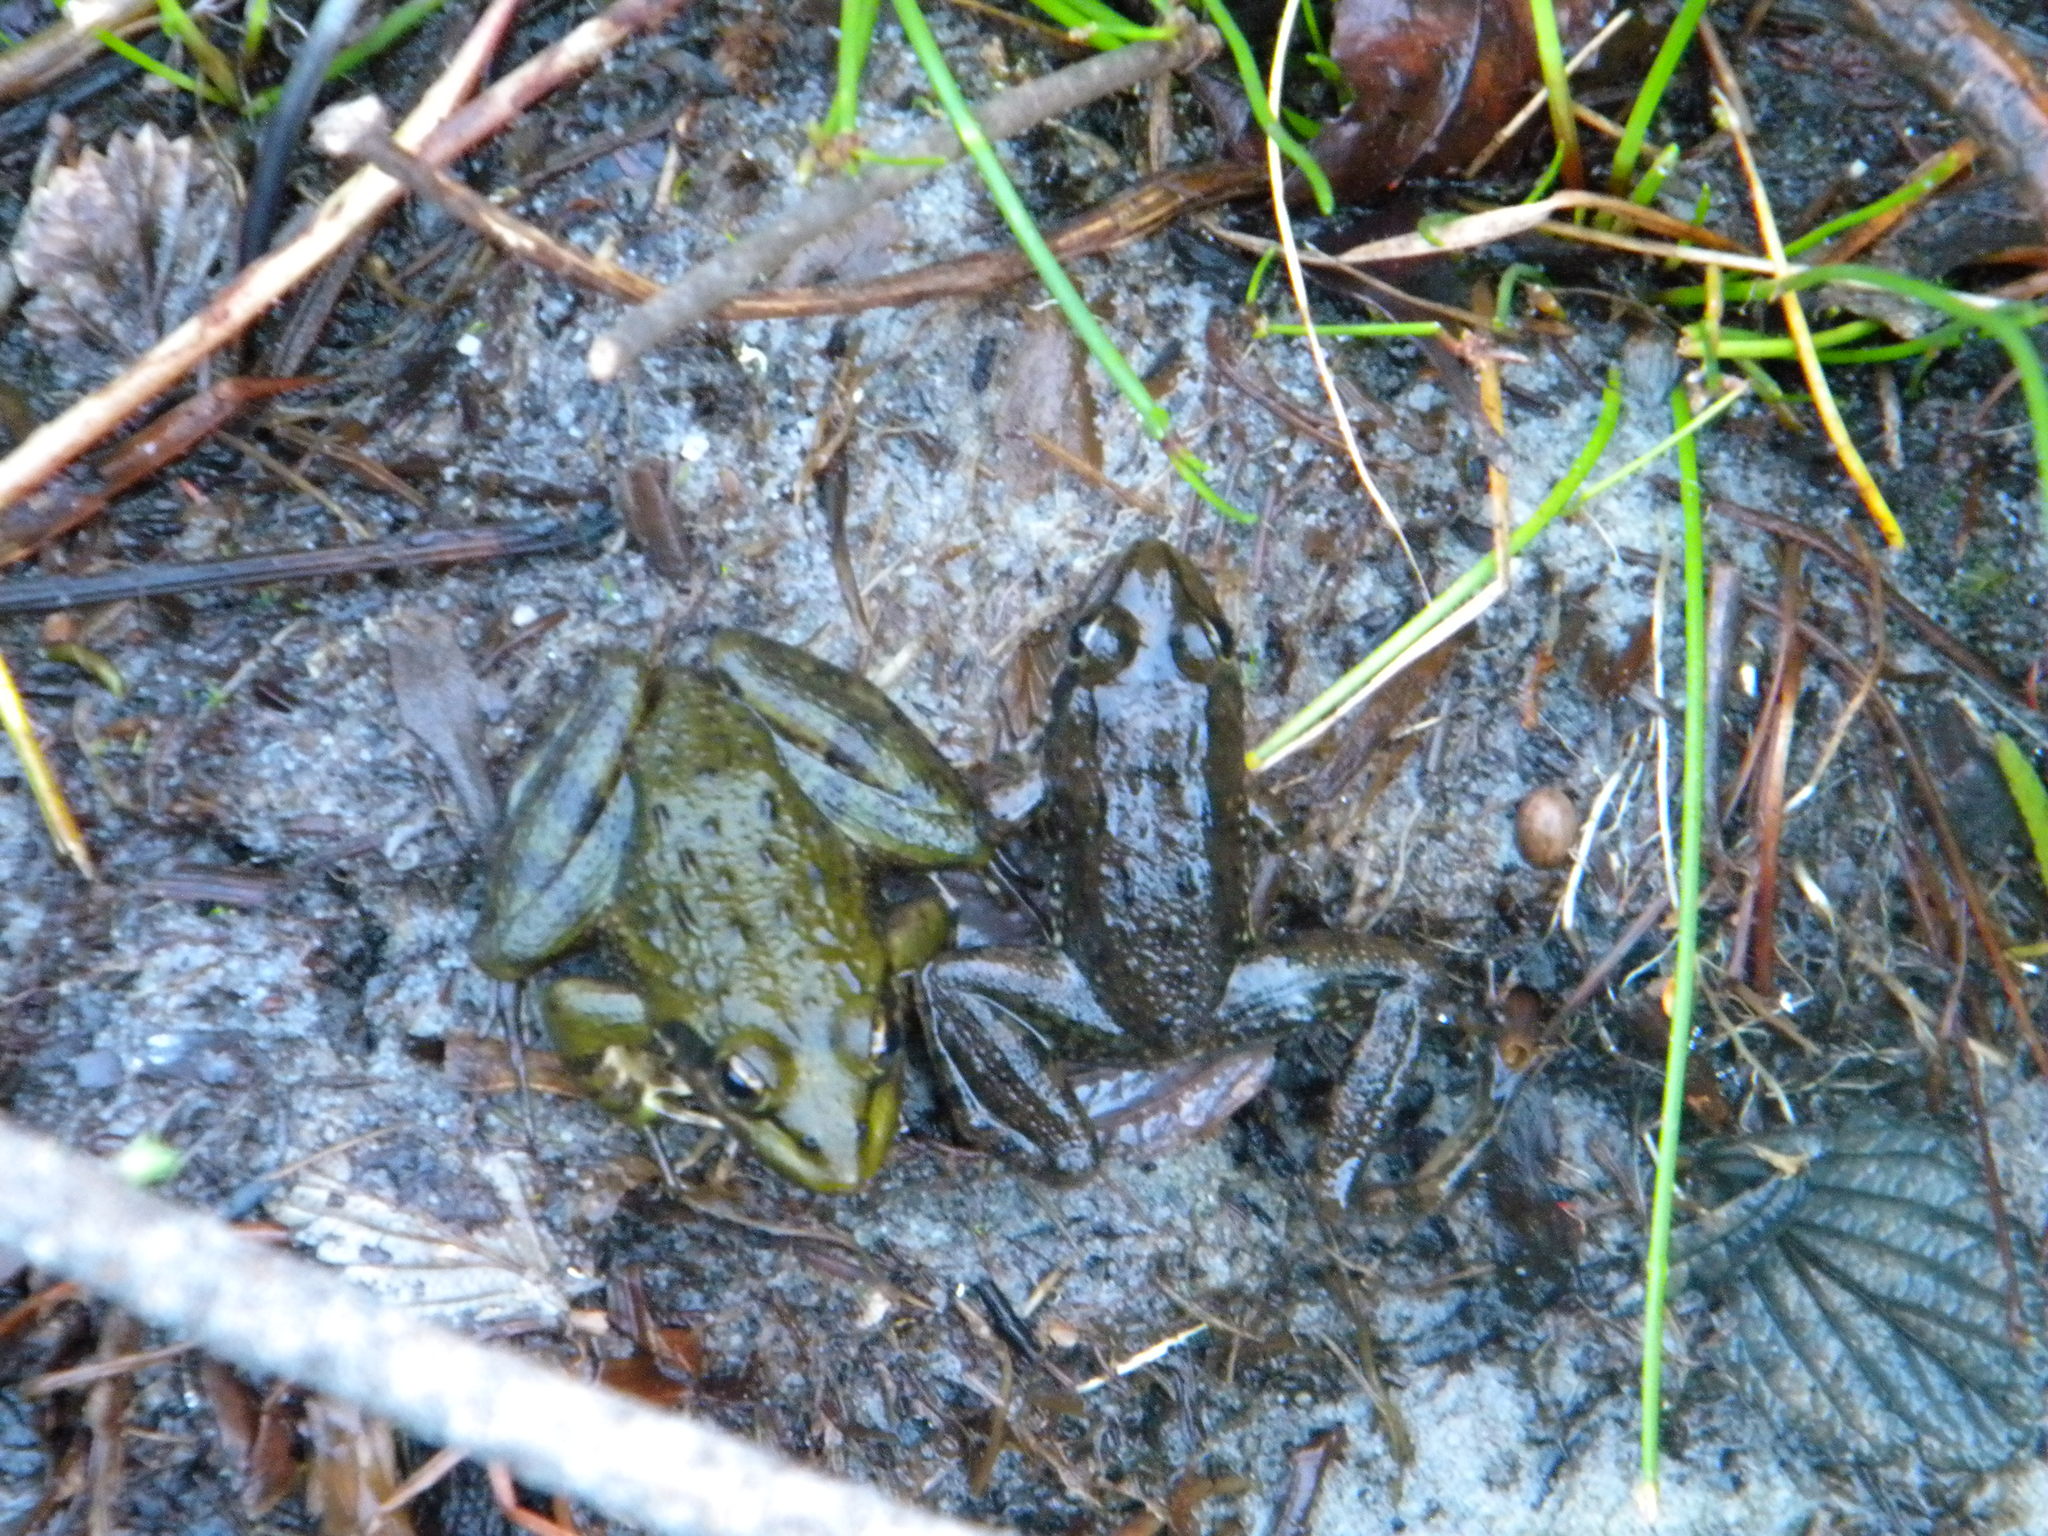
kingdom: Animalia
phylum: Chordata
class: Amphibia
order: Anura
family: Pyxicephalidae
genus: Amietia
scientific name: Amietia fuscigula
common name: Cape rana
